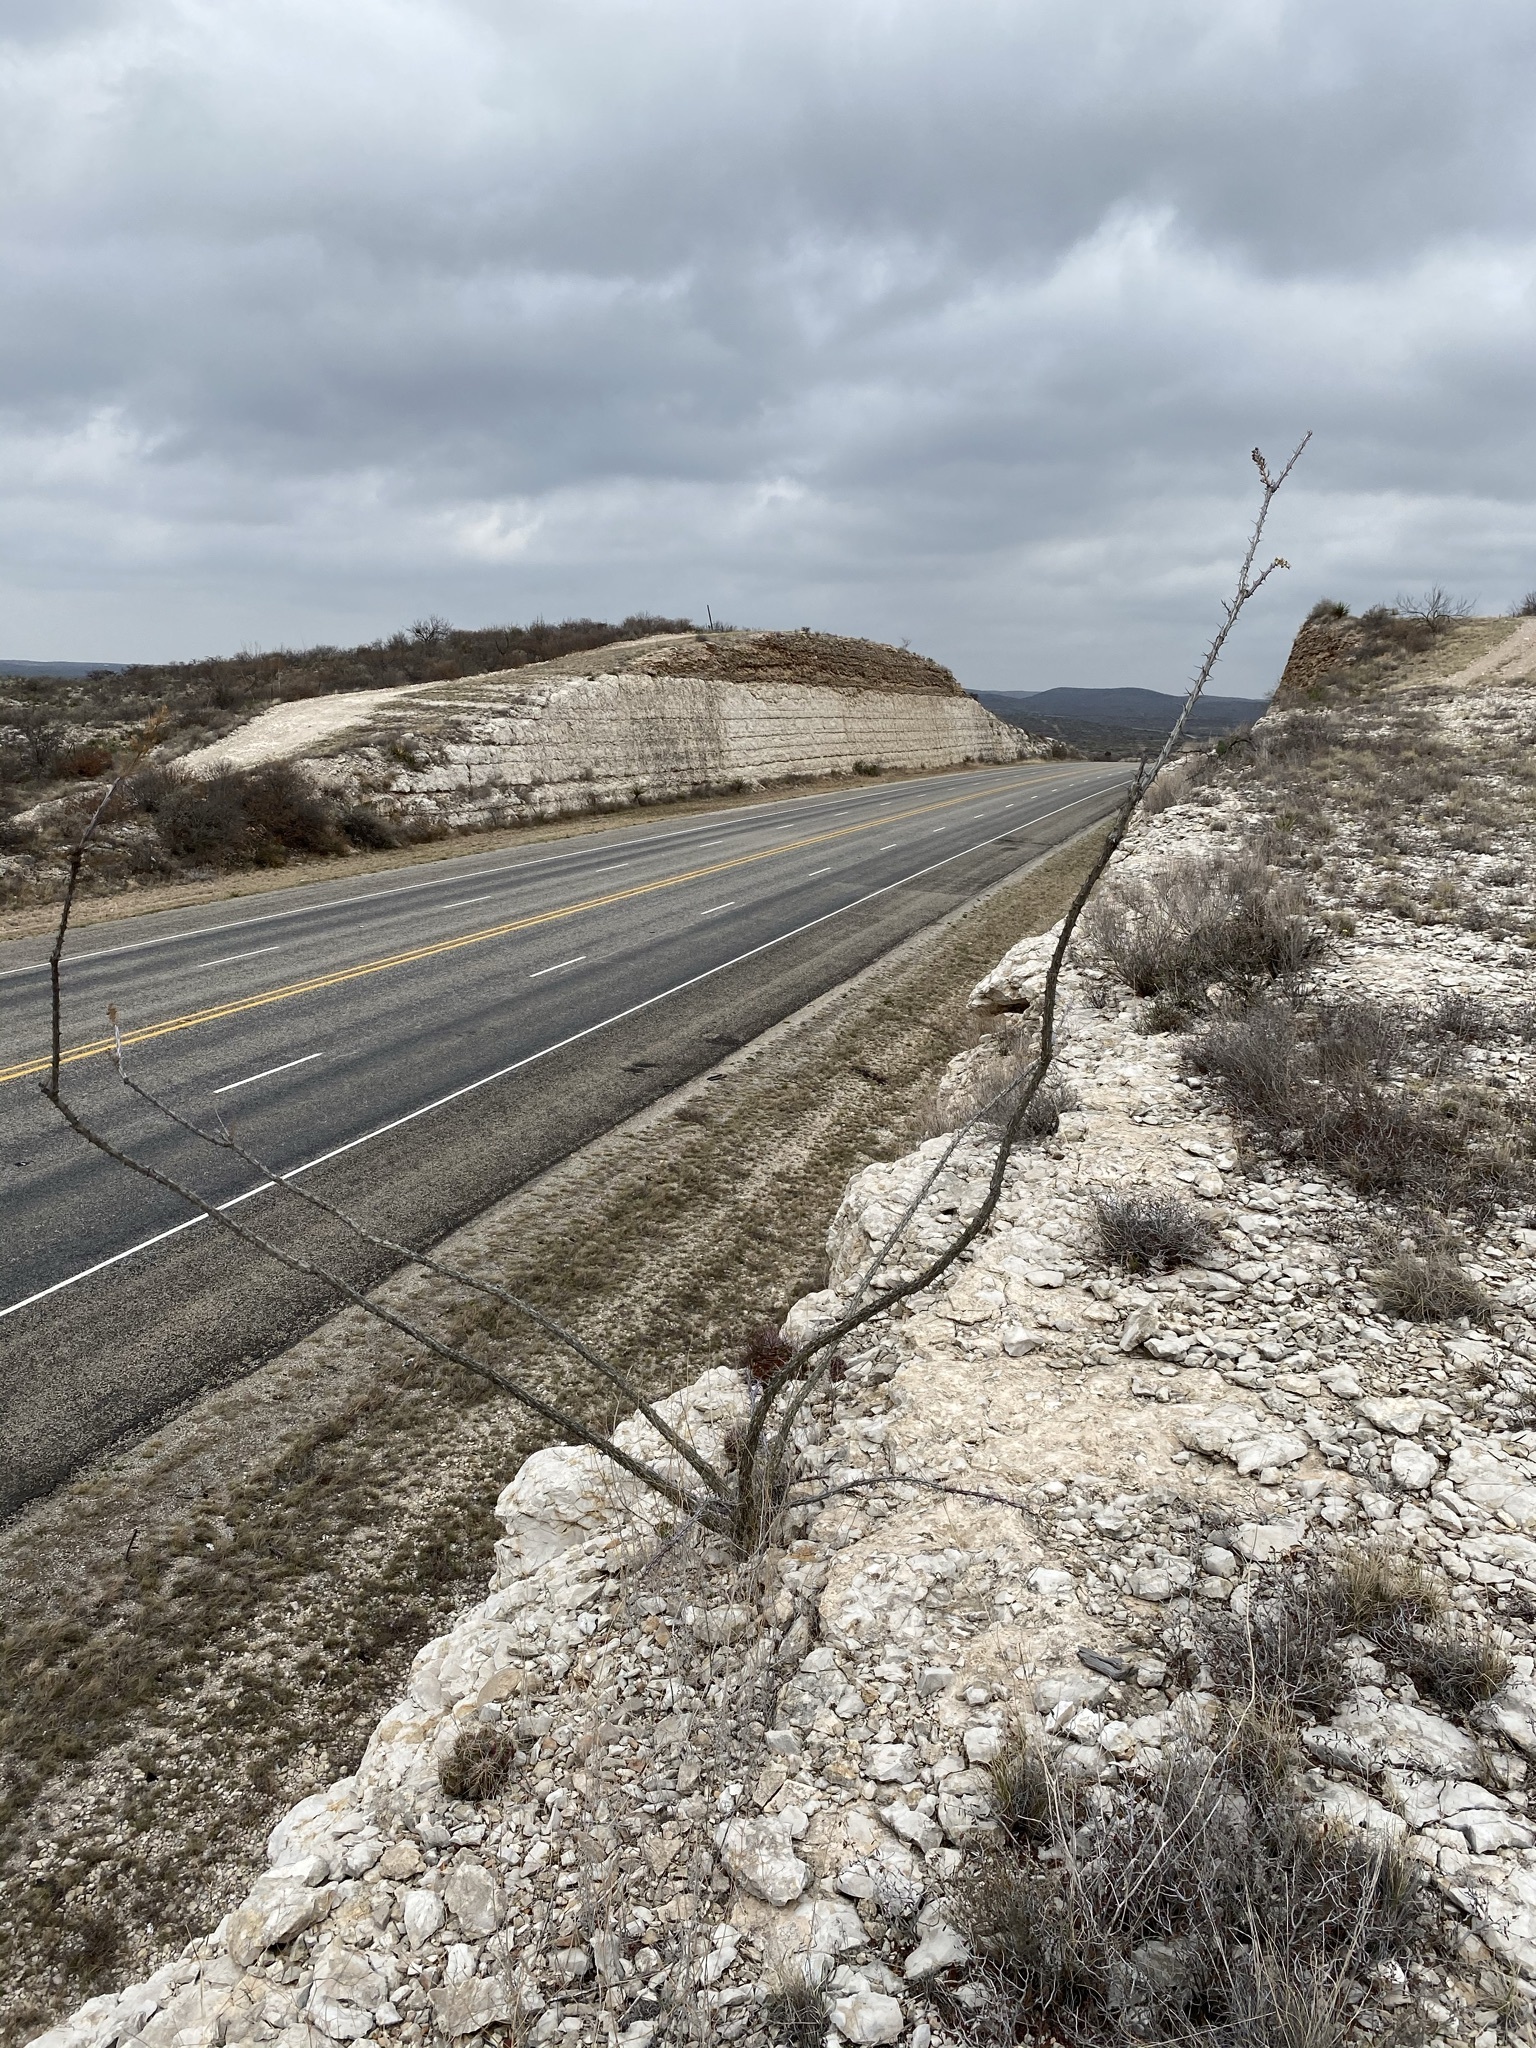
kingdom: Plantae
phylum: Tracheophyta
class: Magnoliopsida
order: Ericales
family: Fouquieriaceae
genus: Fouquieria
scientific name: Fouquieria splendens
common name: Vine-cactus
